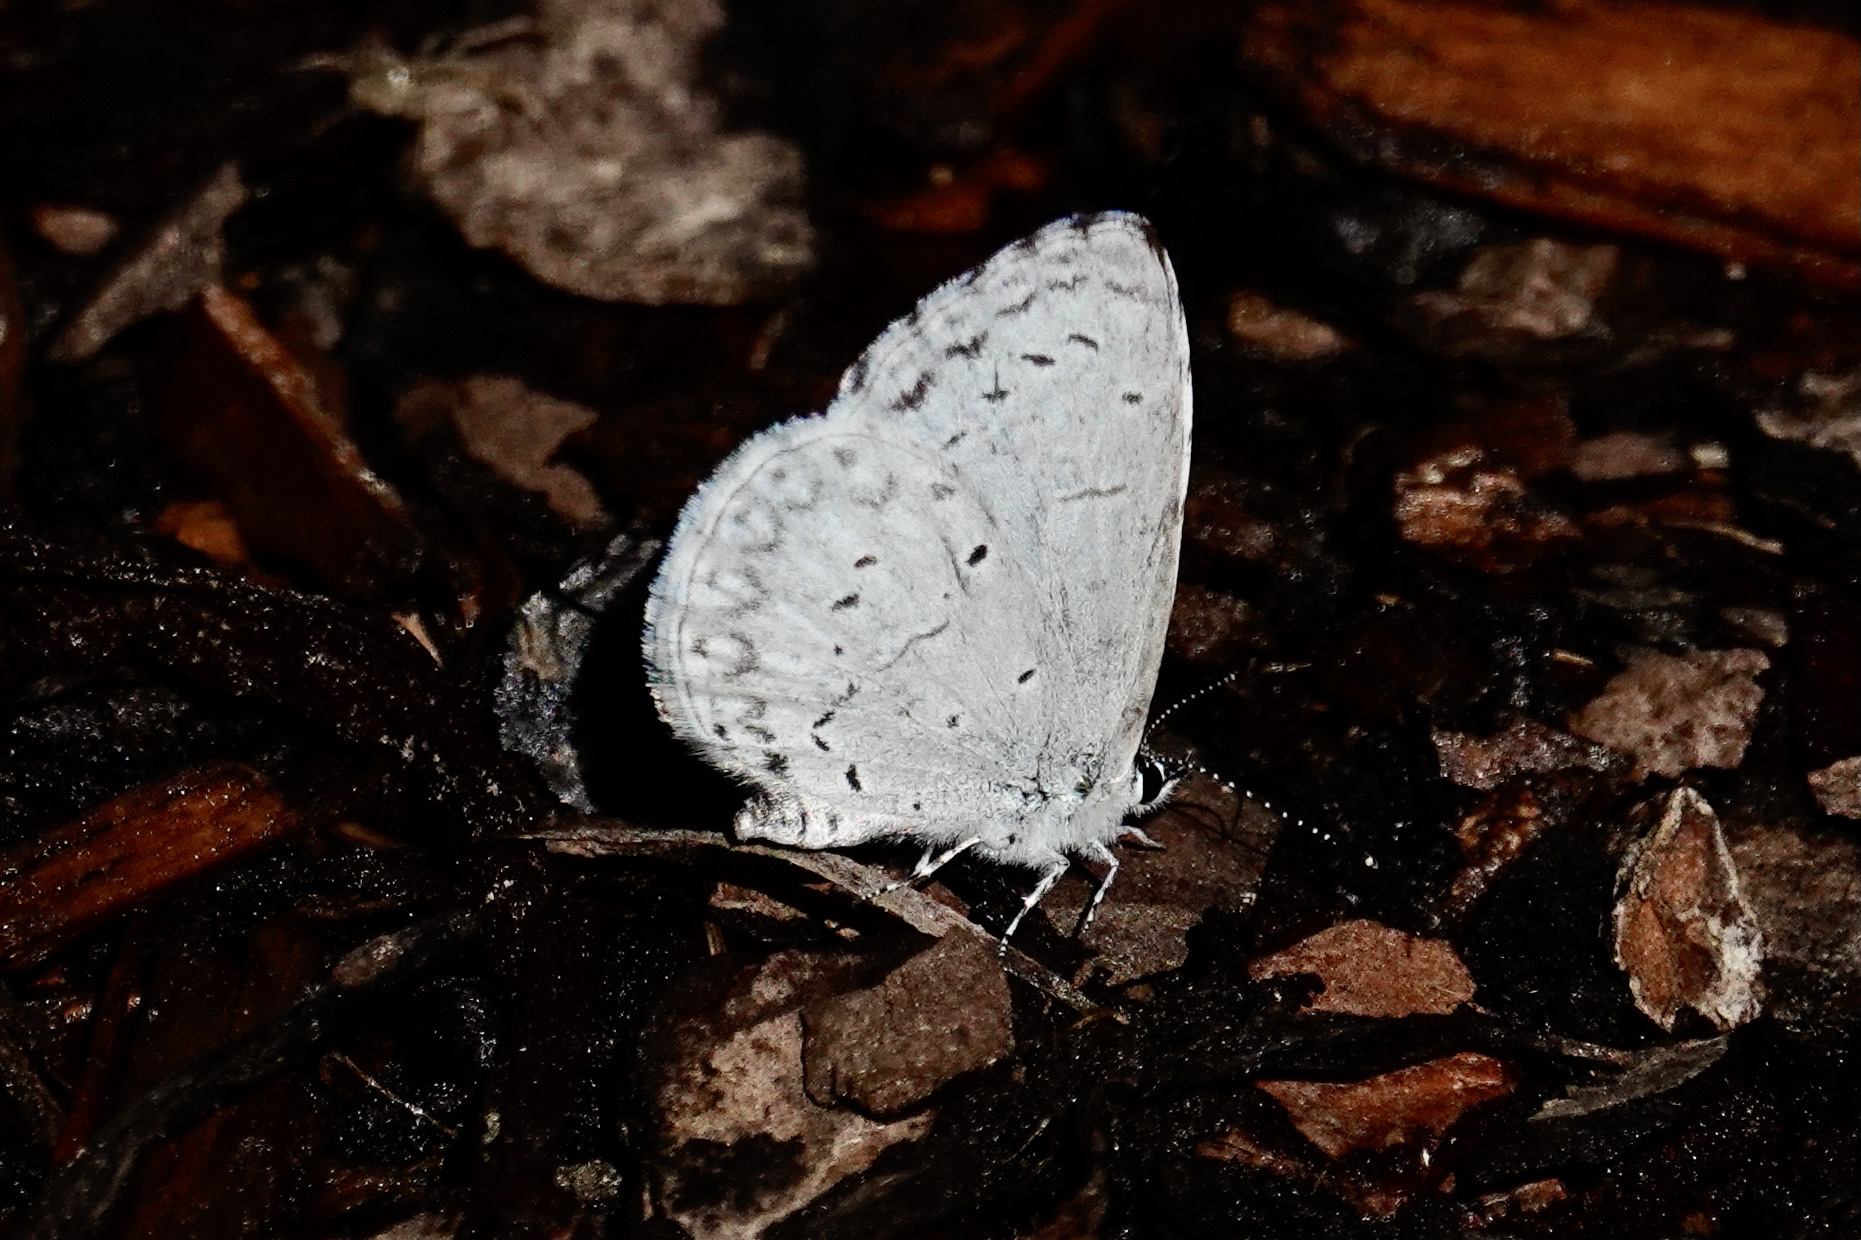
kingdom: Animalia
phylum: Arthropoda
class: Insecta
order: Lepidoptera
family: Lycaenidae
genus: Cyaniris
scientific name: Cyaniris neglecta
